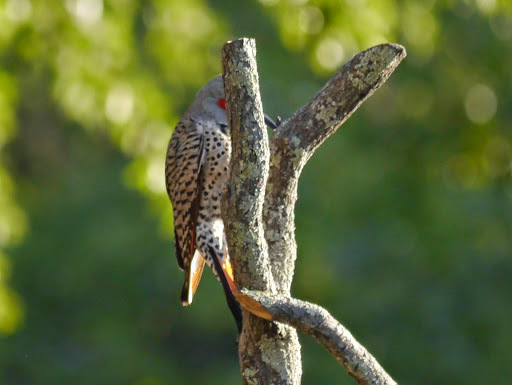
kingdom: Animalia
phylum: Chordata
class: Aves
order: Piciformes
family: Picidae
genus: Colaptes
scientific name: Colaptes auratus
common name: Northern flicker
